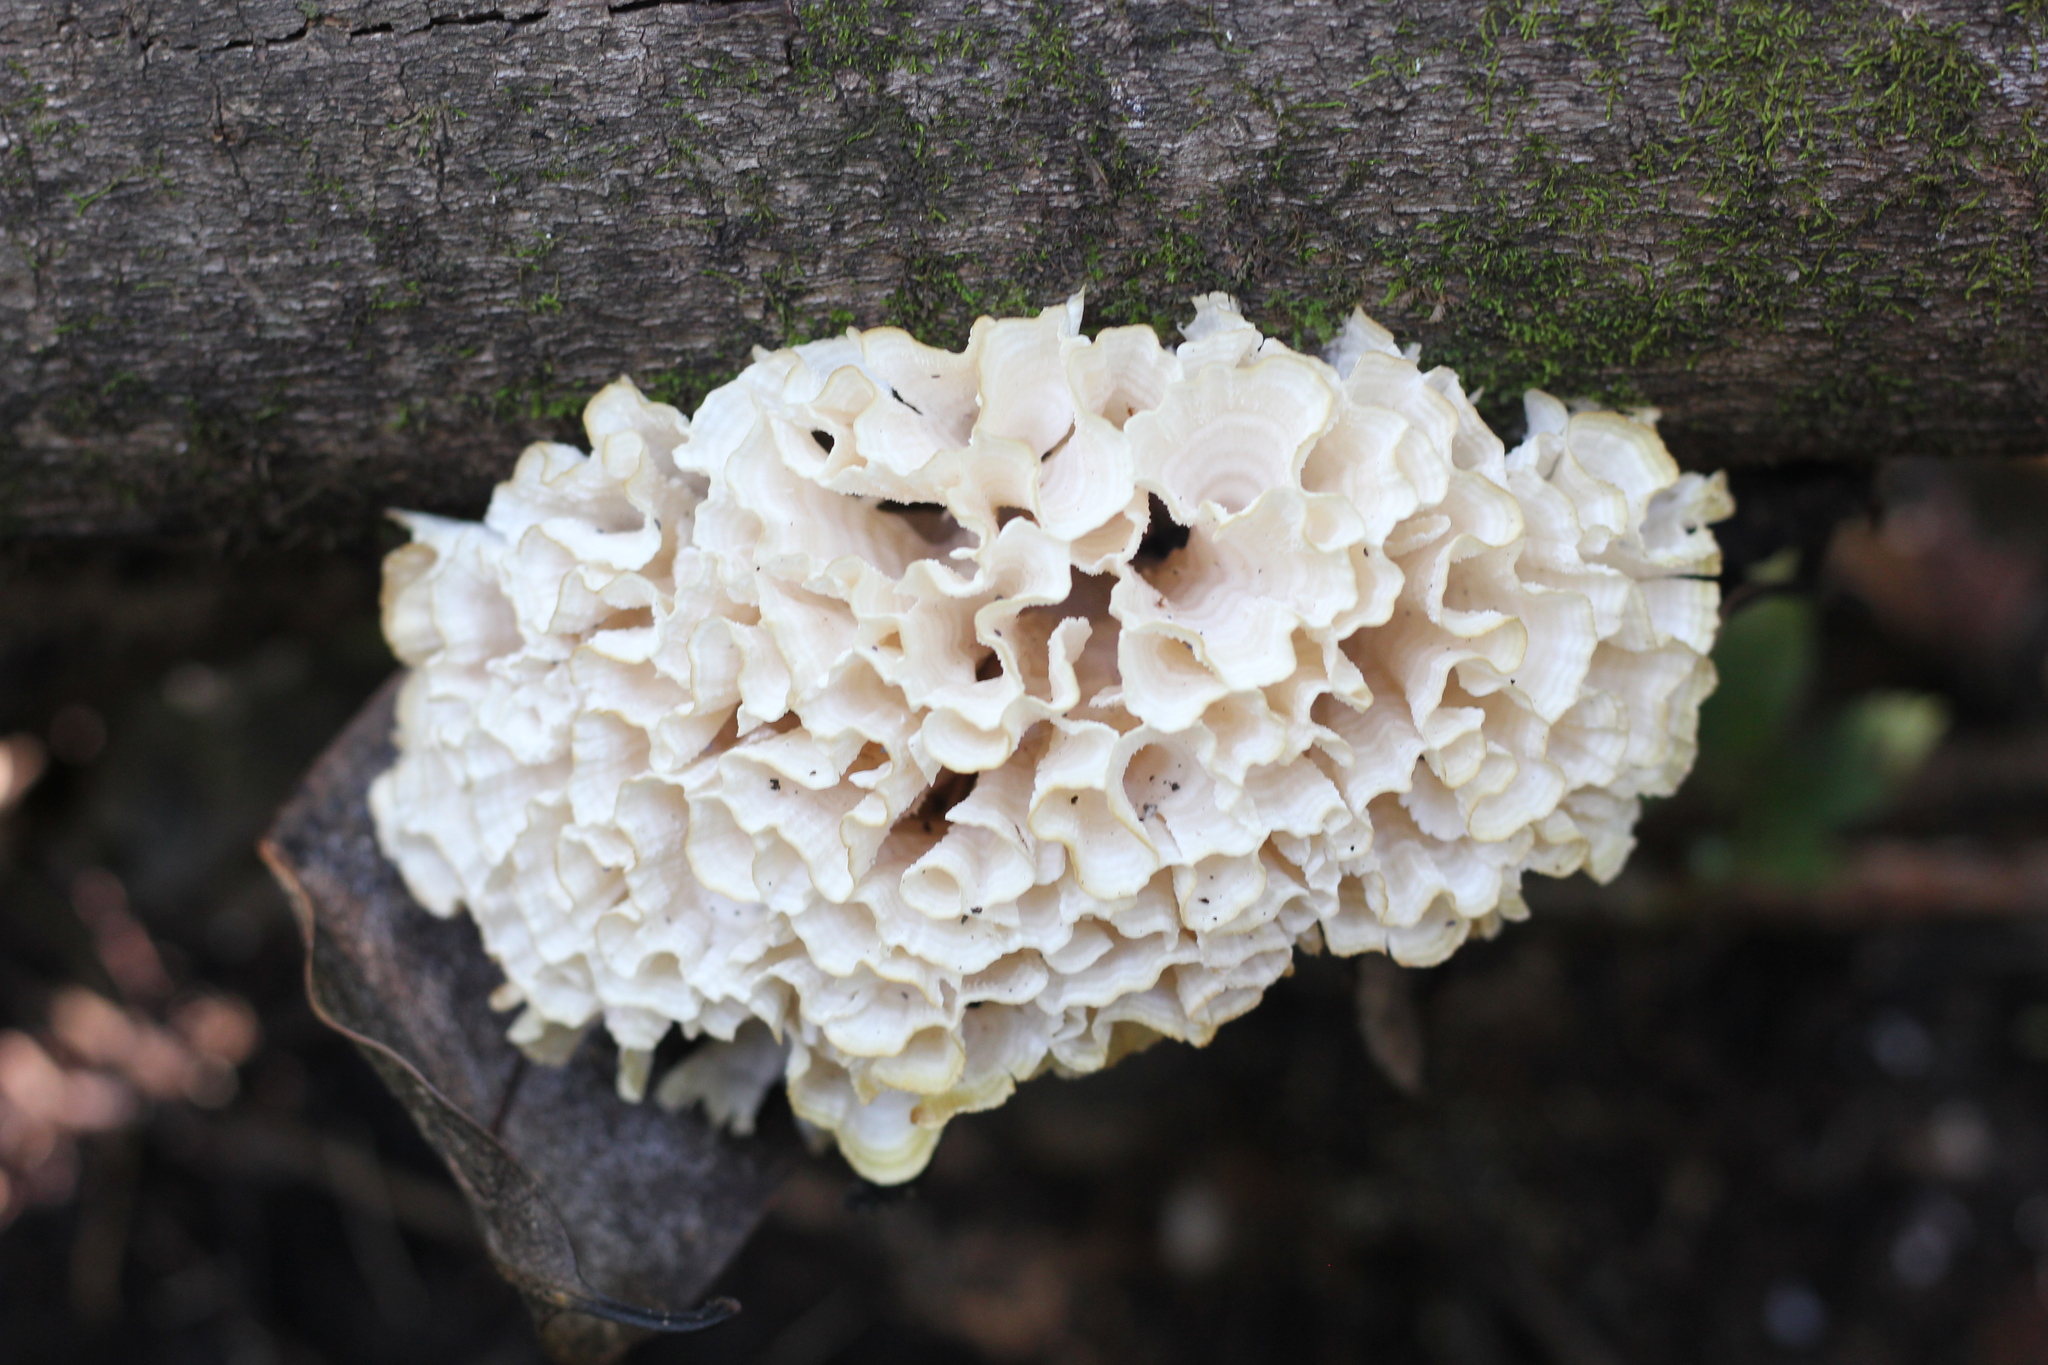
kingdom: Fungi
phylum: Basidiomycota
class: Agaricomycetes
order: Polyporales
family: Irpicaceae
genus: Irpex
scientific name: Irpex rosettiformis
